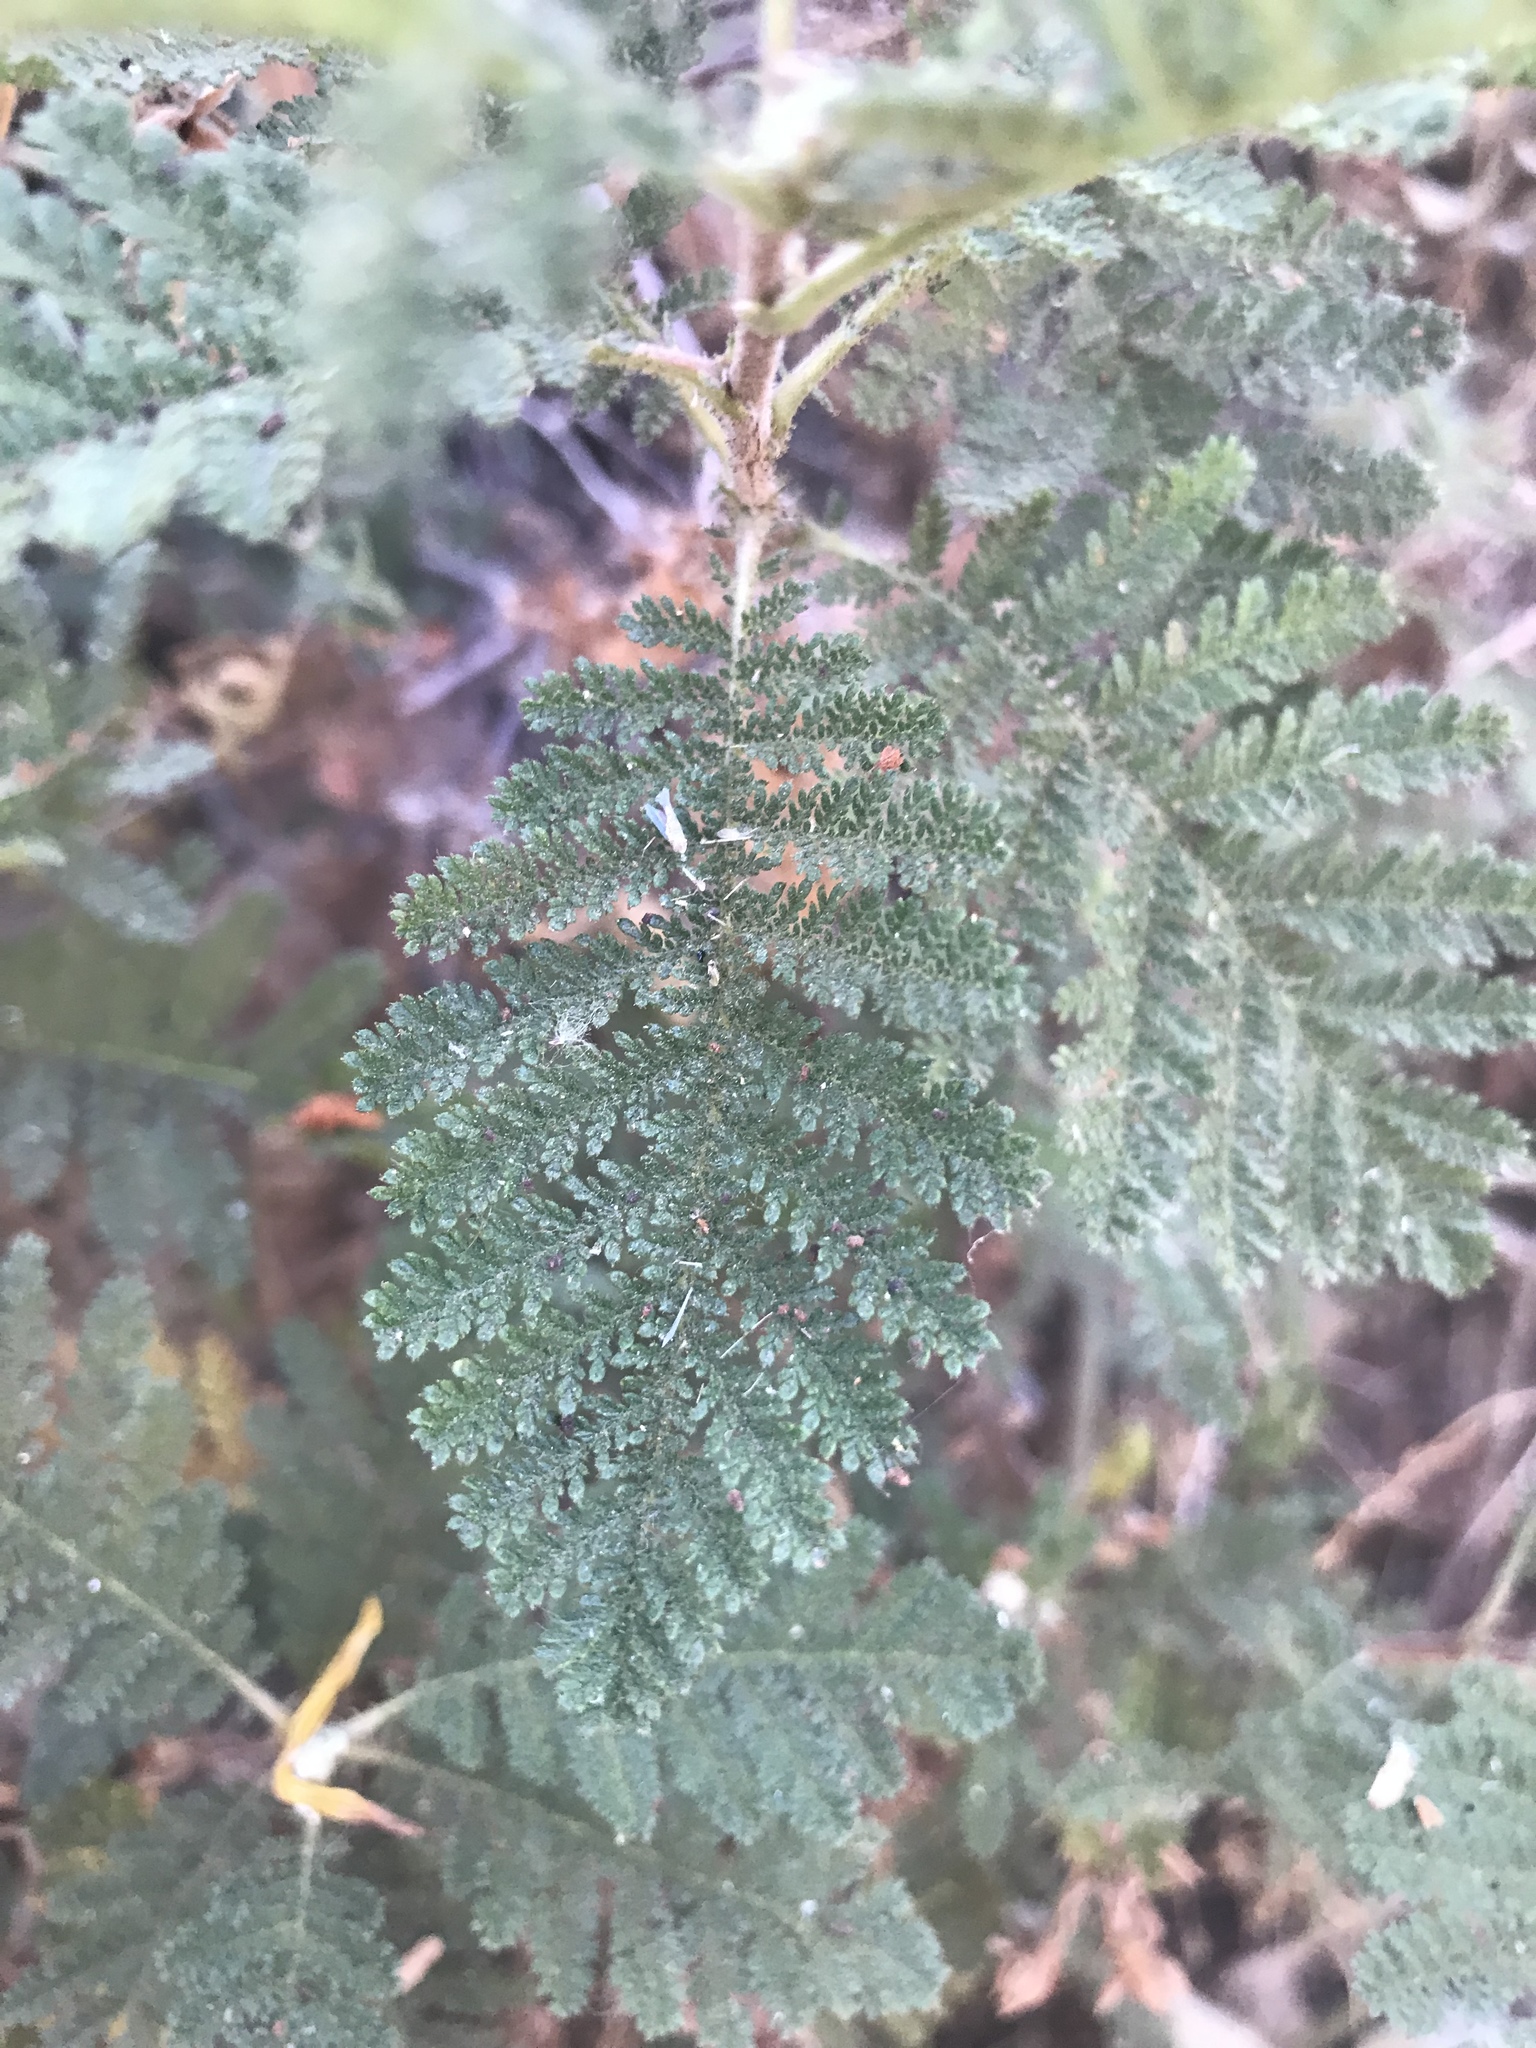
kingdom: Plantae
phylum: Tracheophyta
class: Magnoliopsida
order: Rosales
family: Rosaceae
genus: Chamaebatia
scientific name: Chamaebatia foliolosa
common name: Mountain misery
